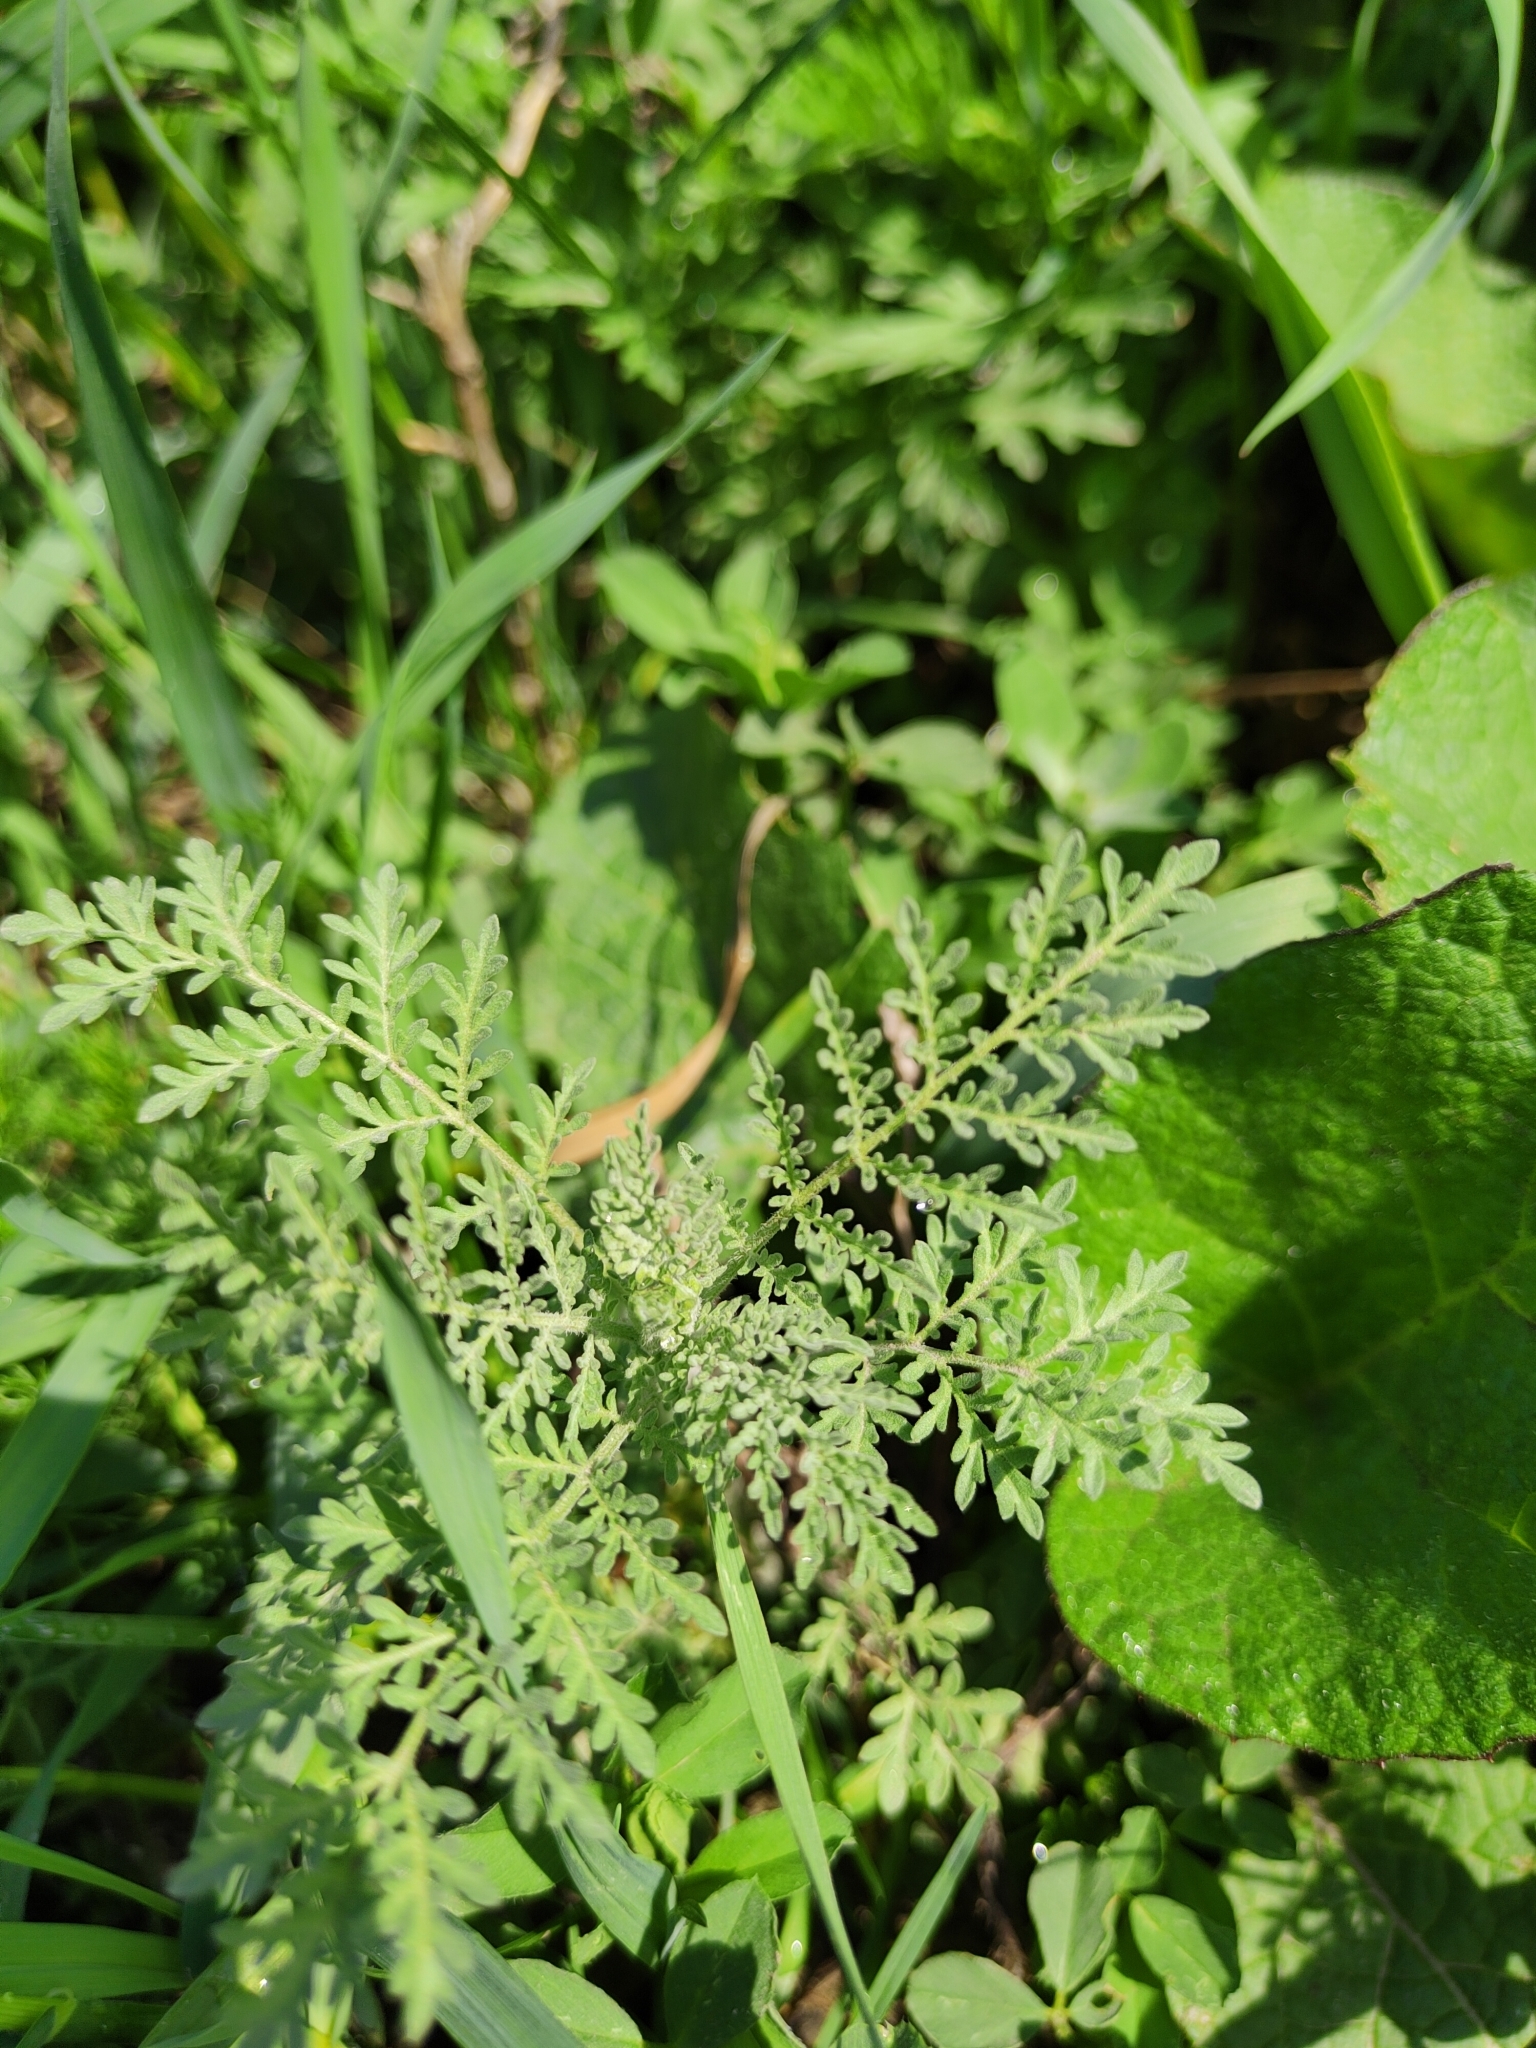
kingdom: Plantae
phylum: Tracheophyta
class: Magnoliopsida
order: Brassicales
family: Brassicaceae
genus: Descurainia
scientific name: Descurainia sophia
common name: Flixweed
